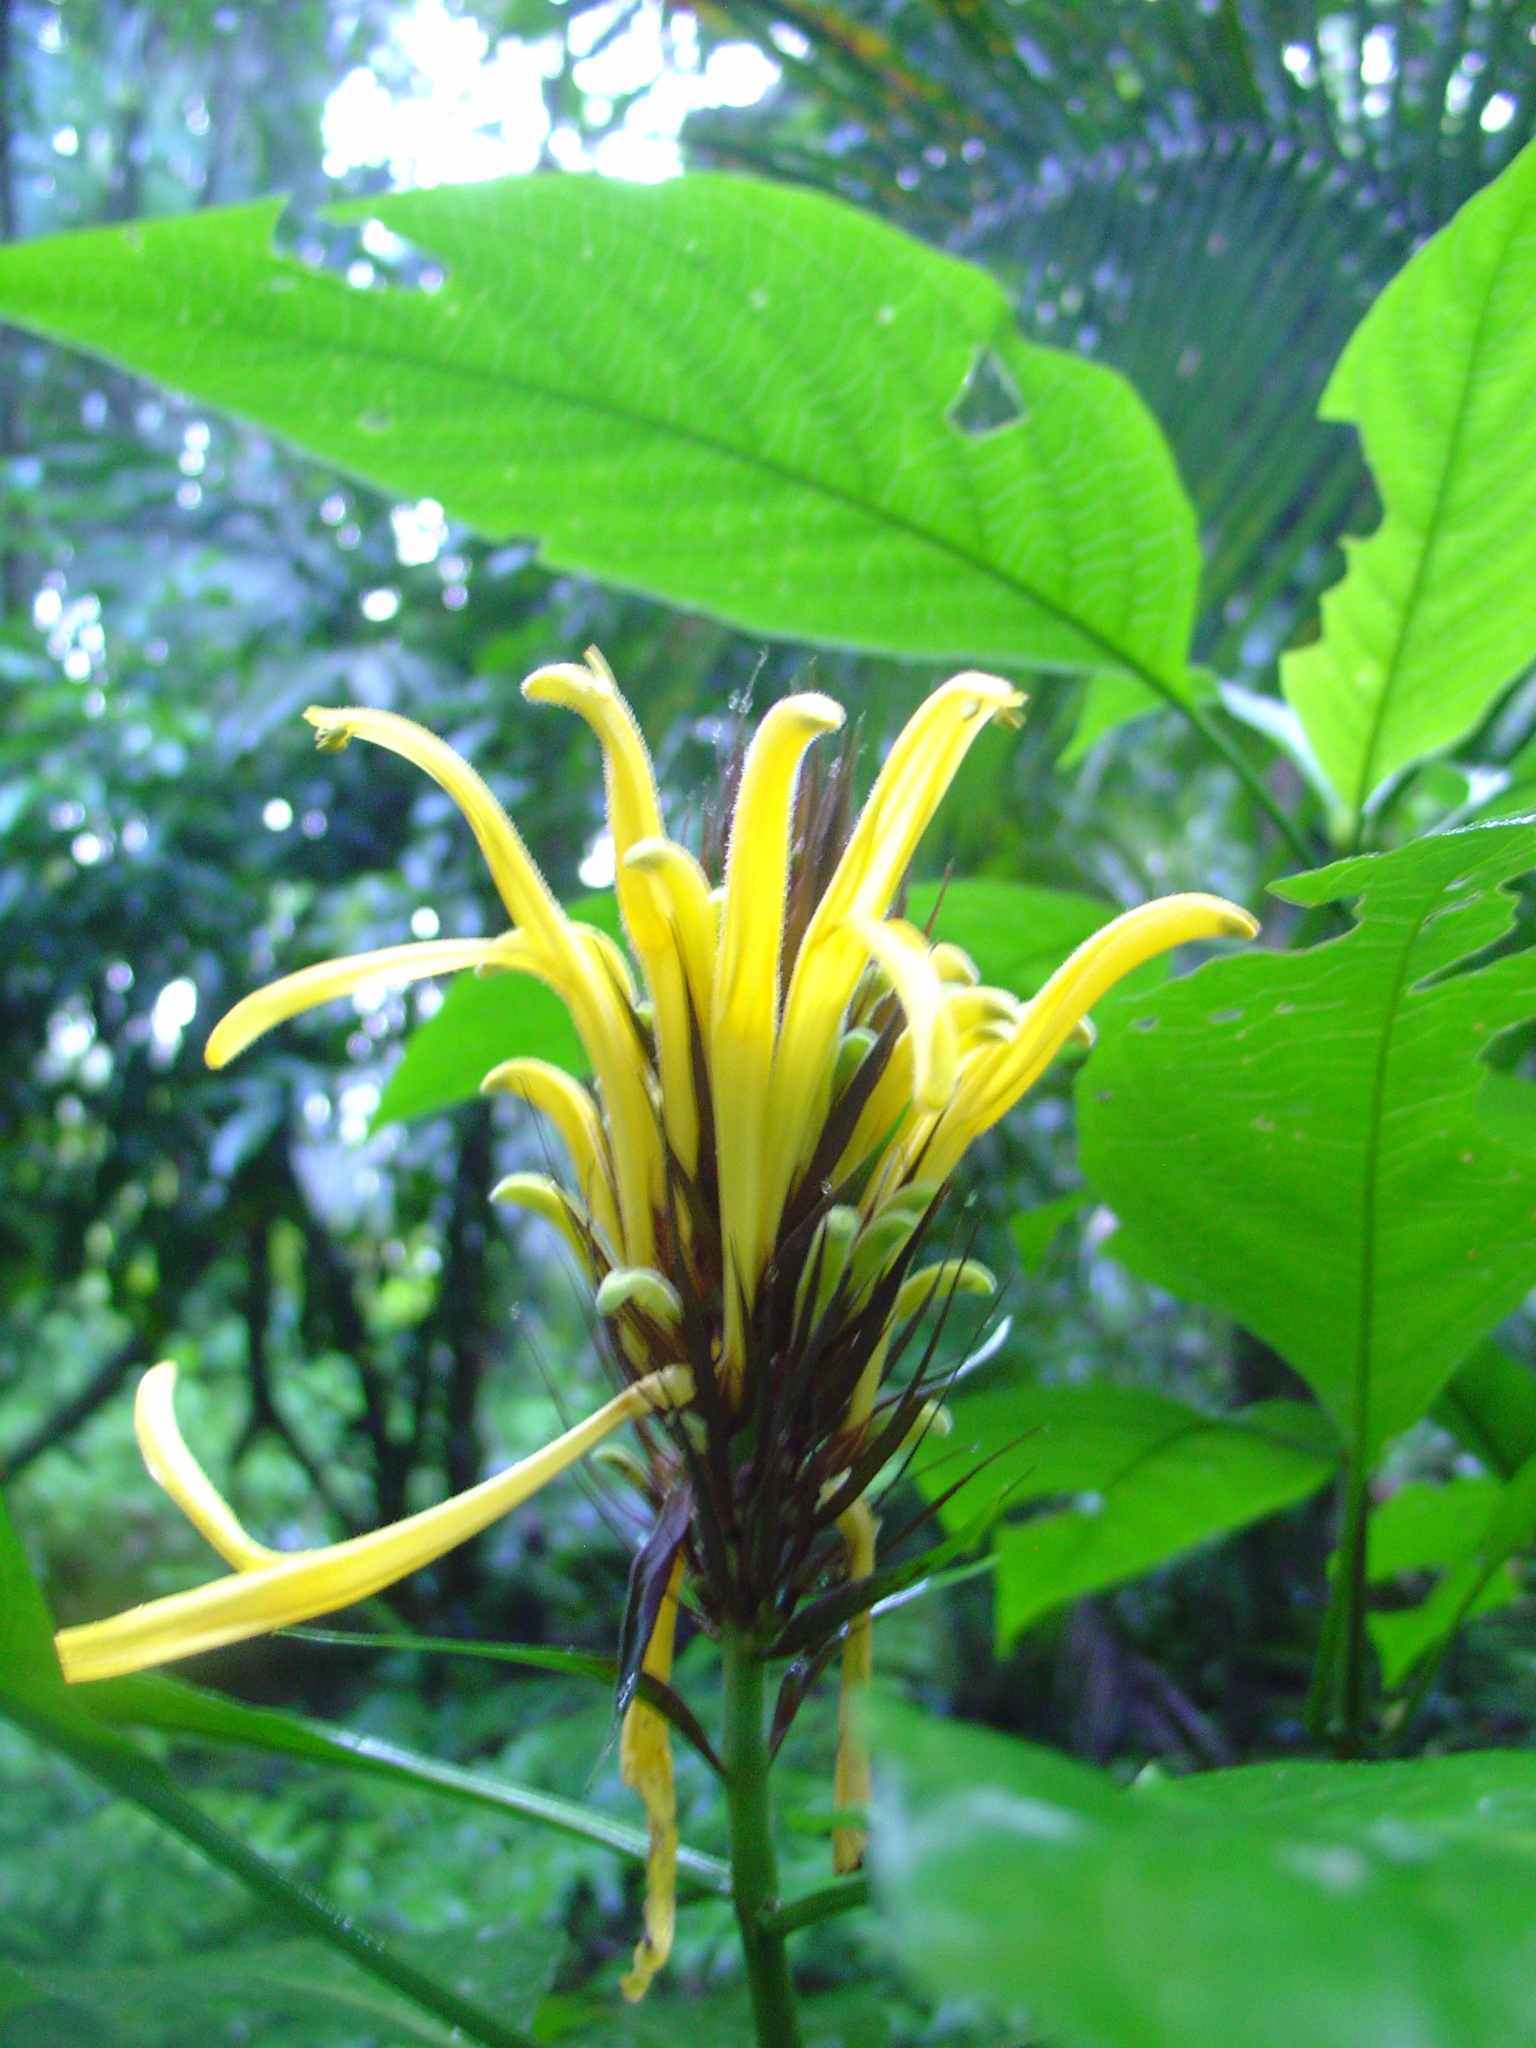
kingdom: Plantae
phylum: Tracheophyta
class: Magnoliopsida
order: Lamiales
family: Acanthaceae
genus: Justicia
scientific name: Justicia aurea
